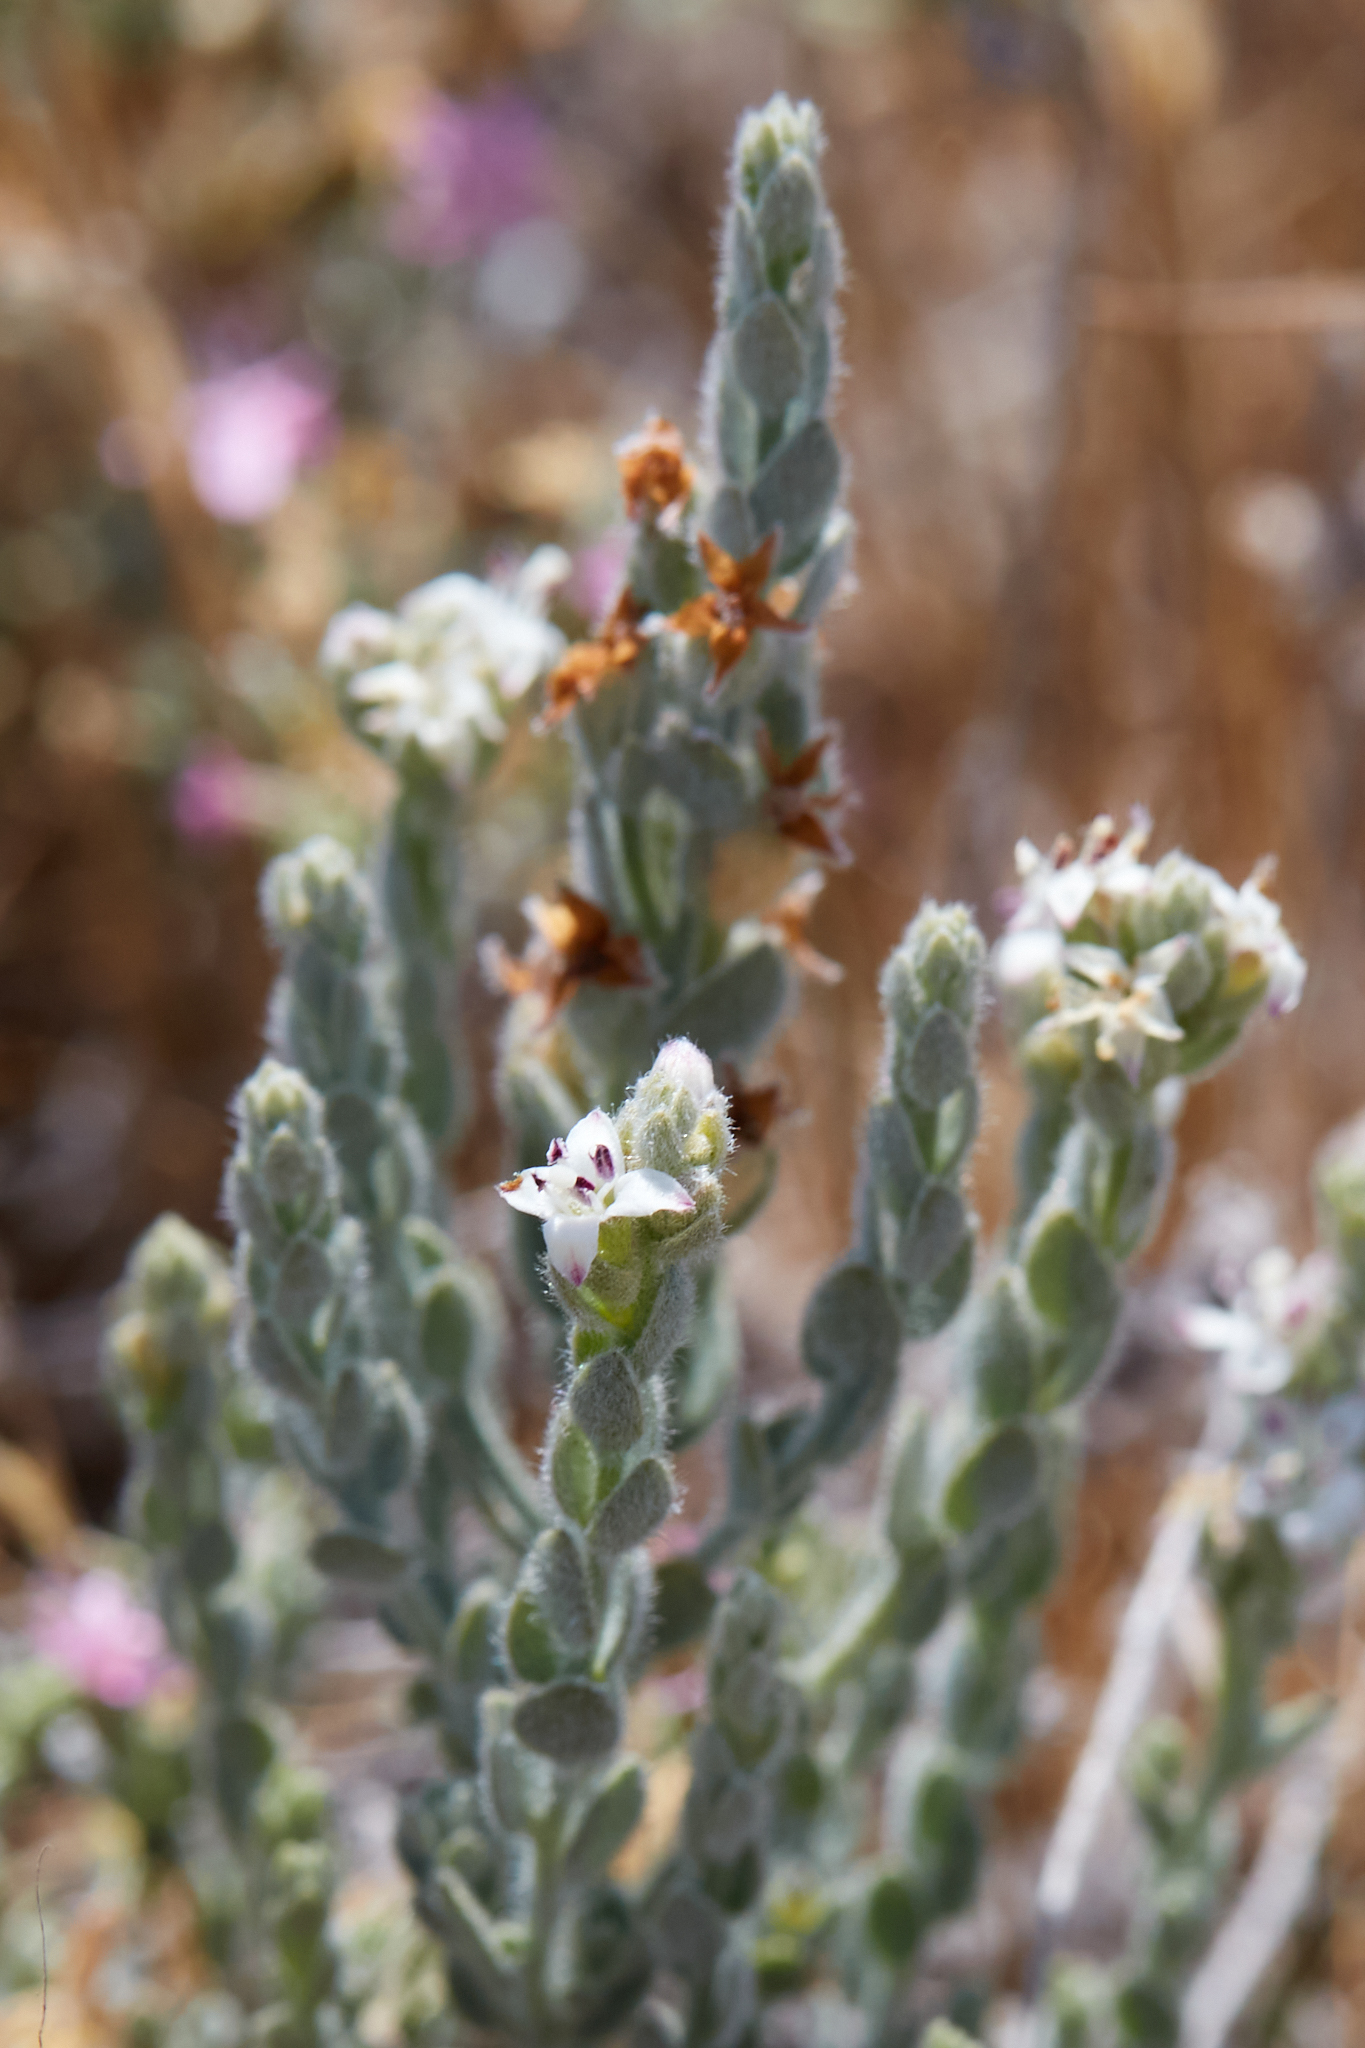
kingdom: Plantae
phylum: Tracheophyta
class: Magnoliopsida
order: Solanales
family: Convolvulaceae
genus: Cressa
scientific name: Cressa truxillensis
